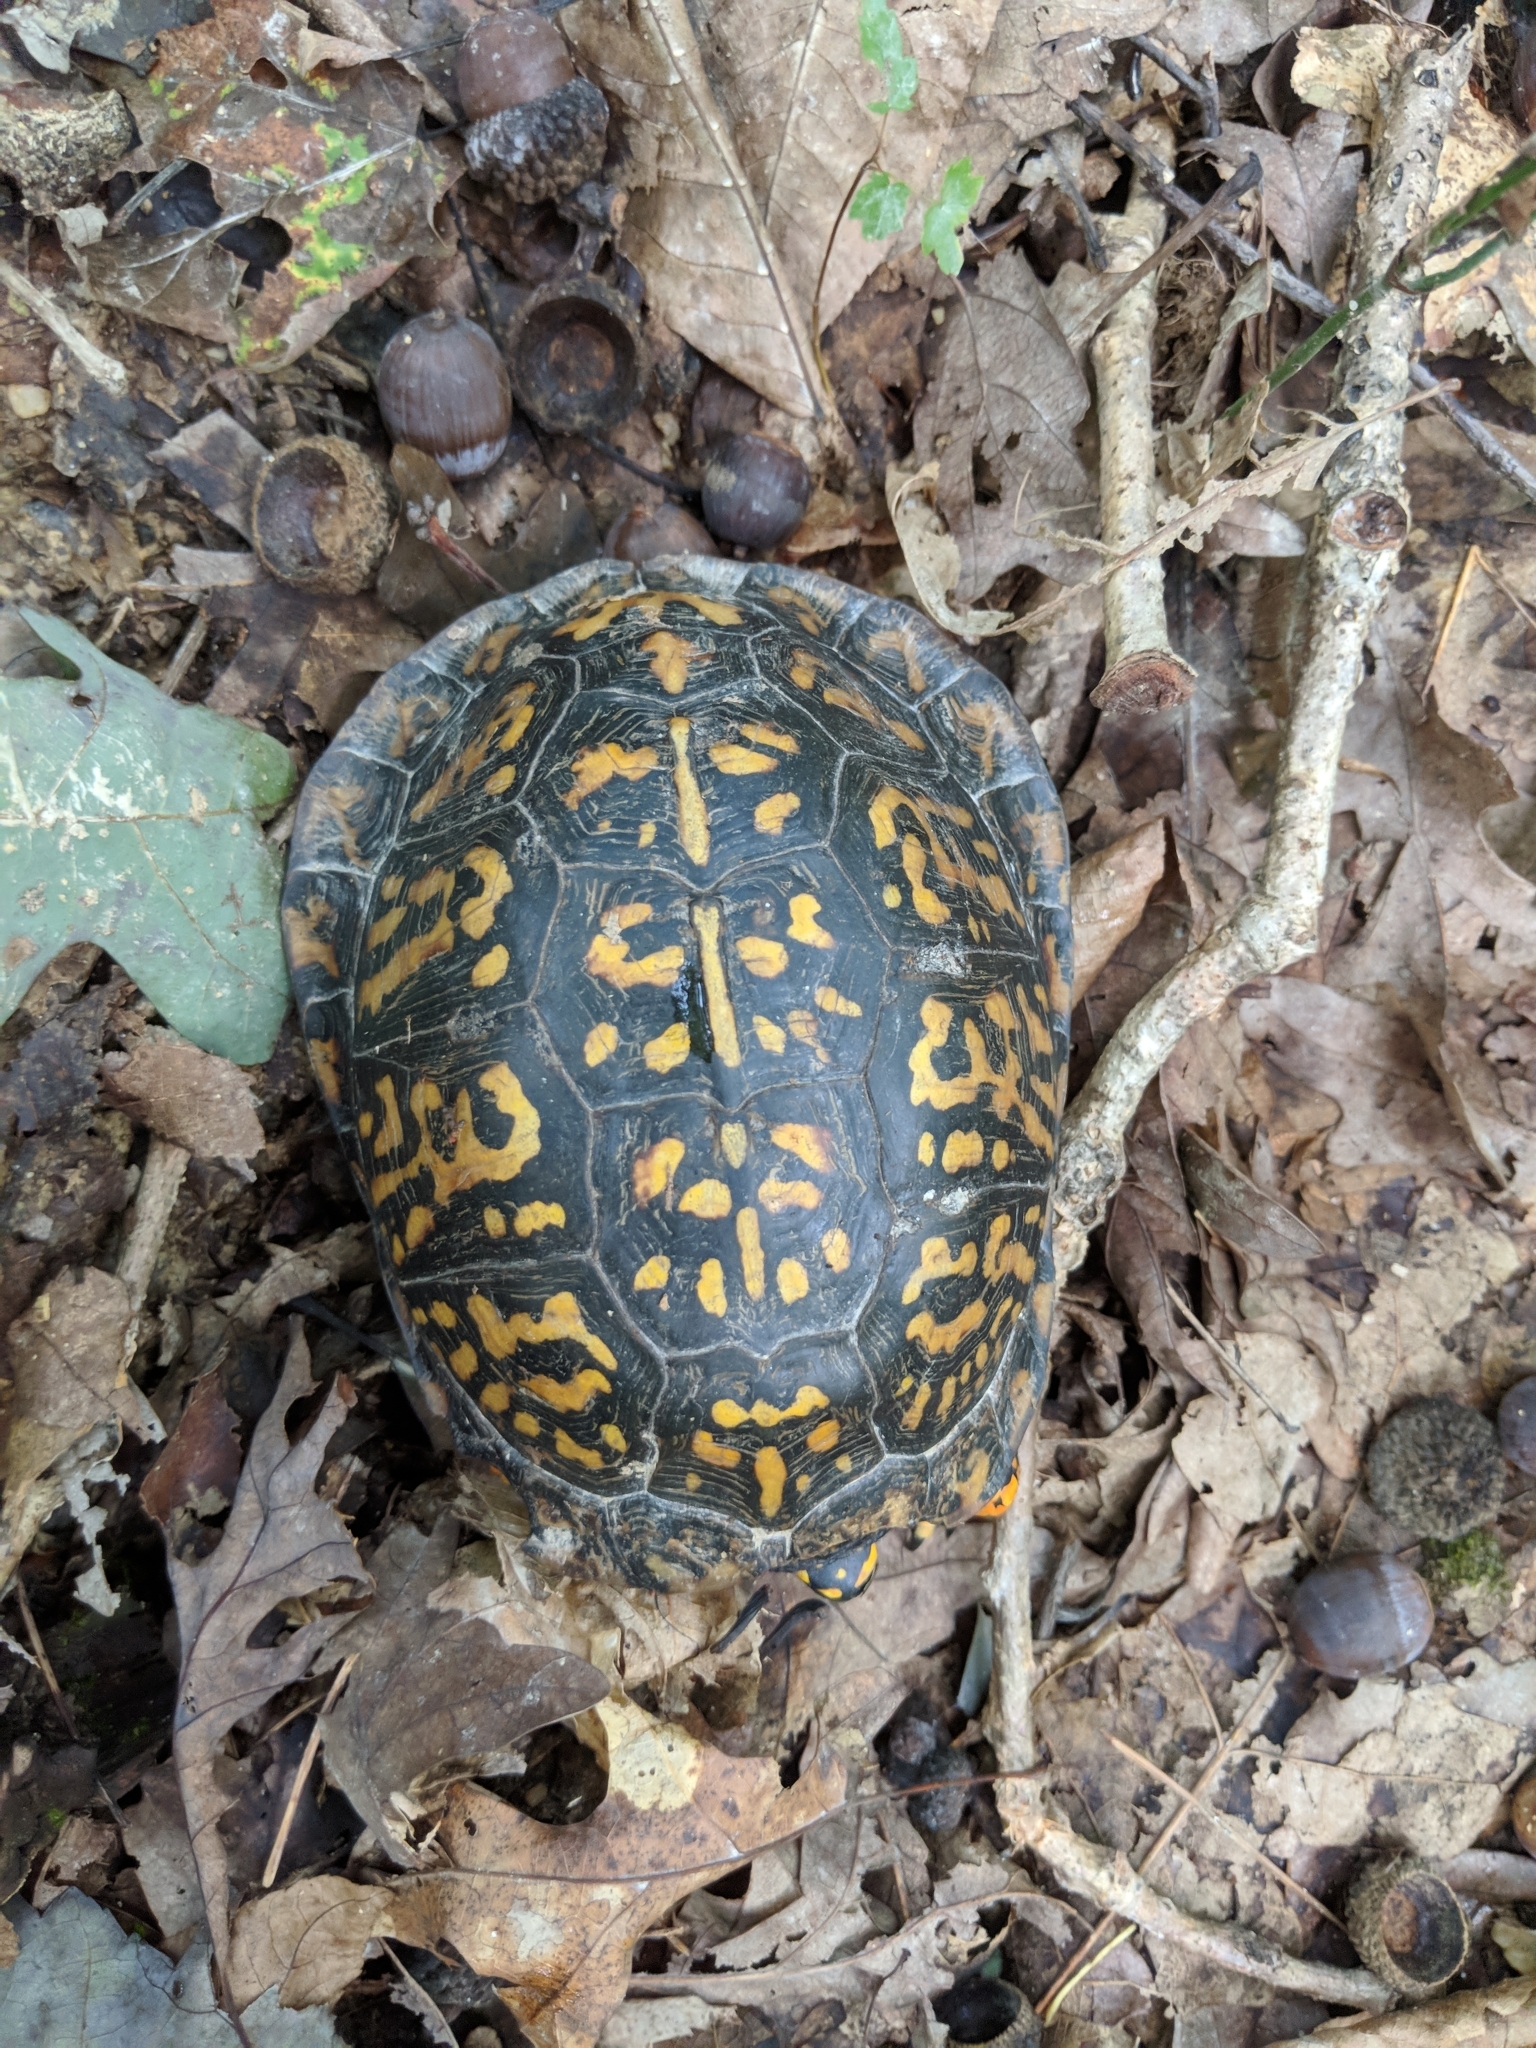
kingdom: Animalia
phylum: Chordata
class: Testudines
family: Emydidae
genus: Terrapene
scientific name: Terrapene carolina
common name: Common box turtle
